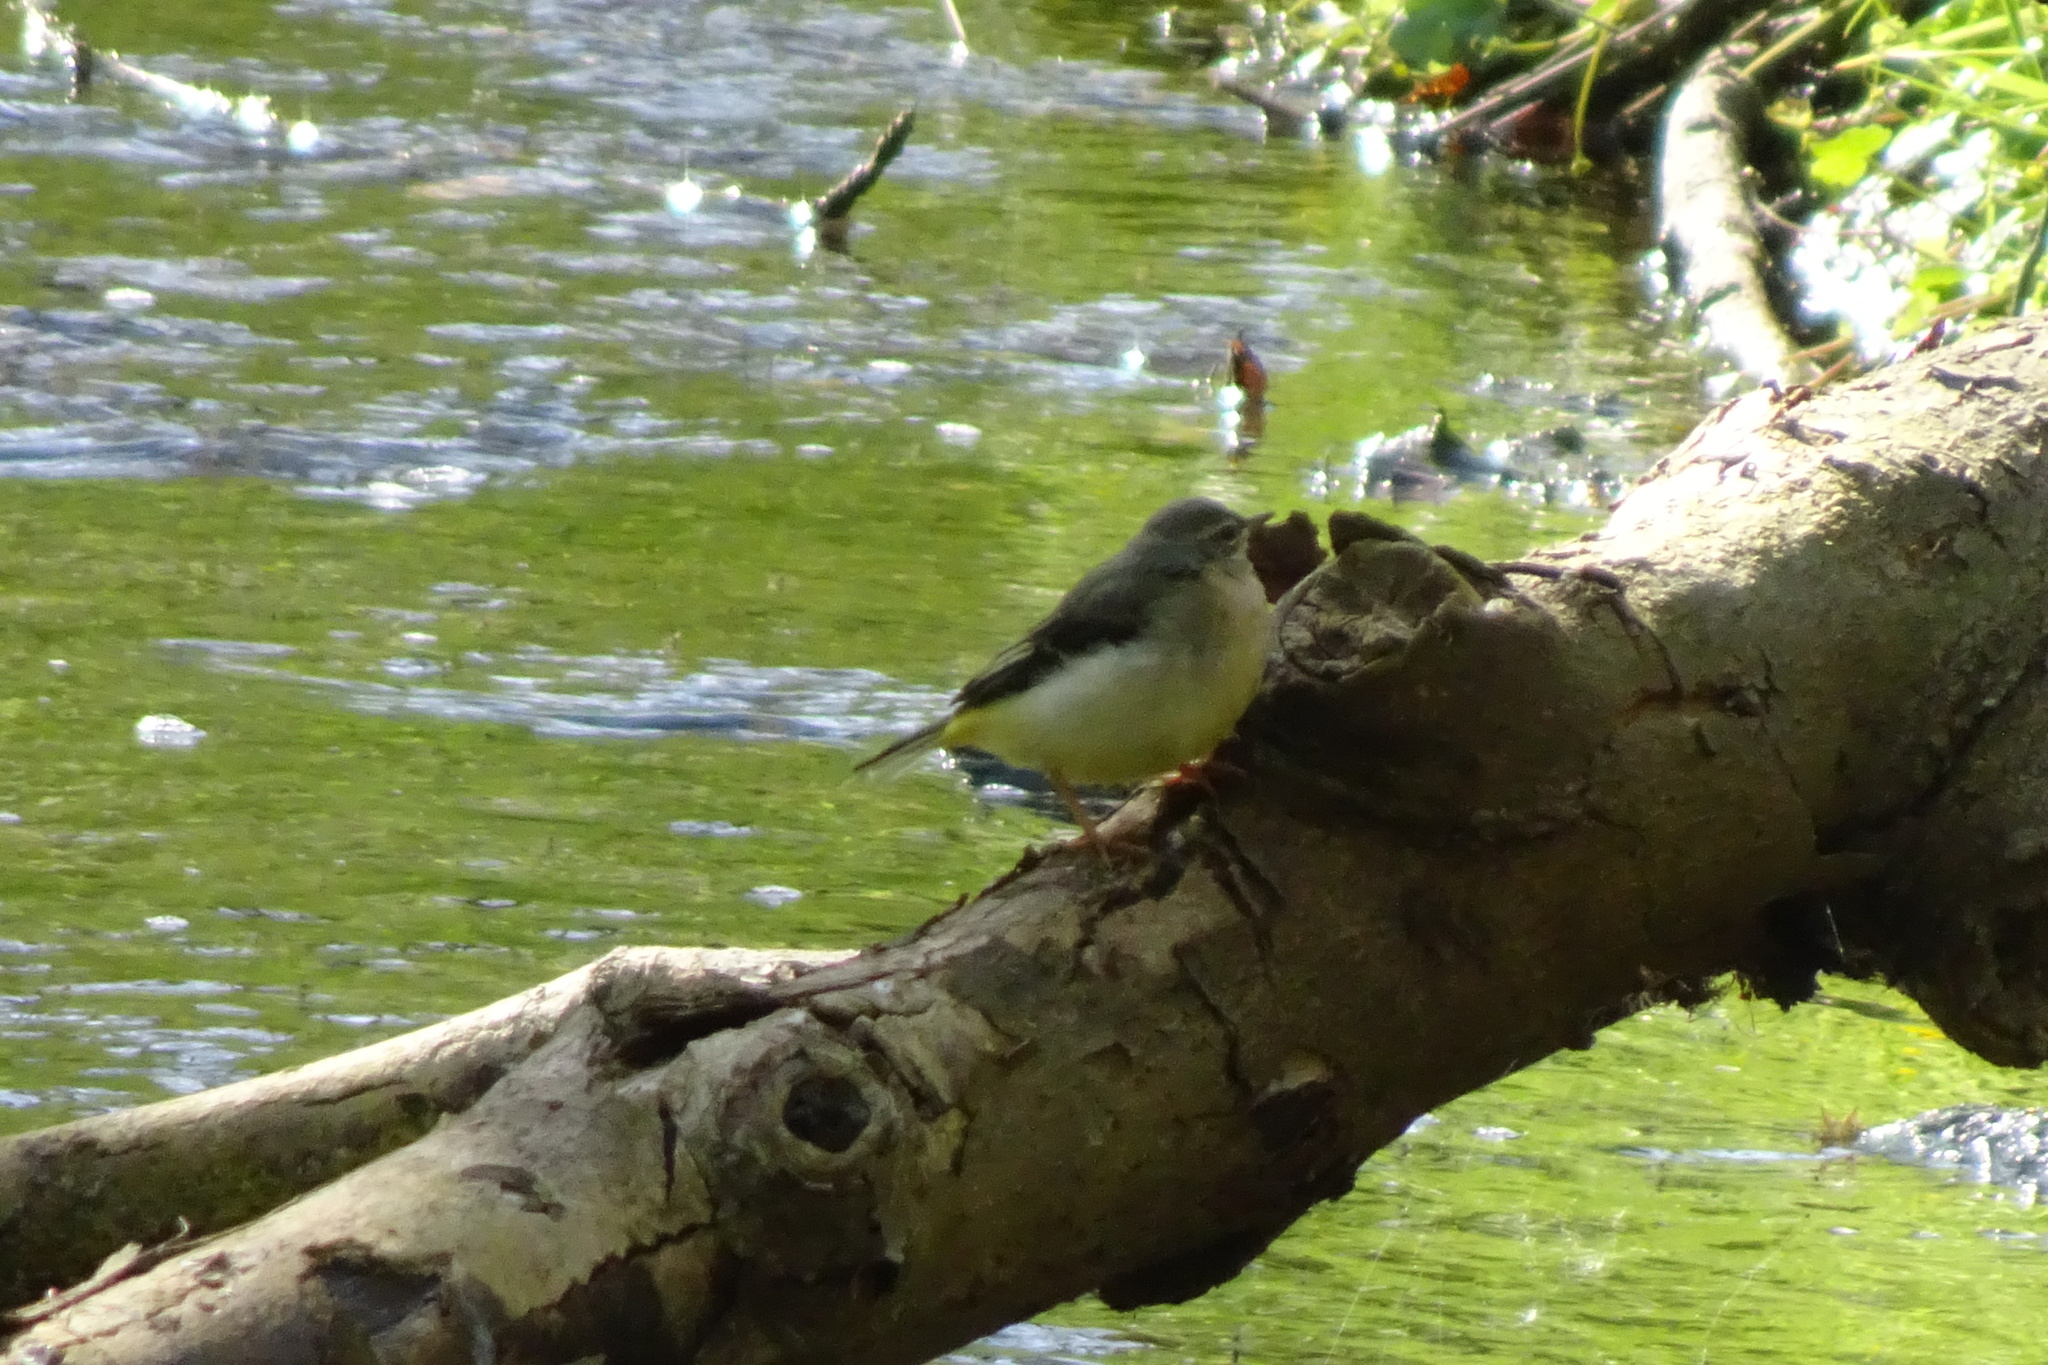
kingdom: Animalia
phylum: Chordata
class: Aves
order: Passeriformes
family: Motacillidae
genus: Motacilla
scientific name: Motacilla cinerea
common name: Grey wagtail
